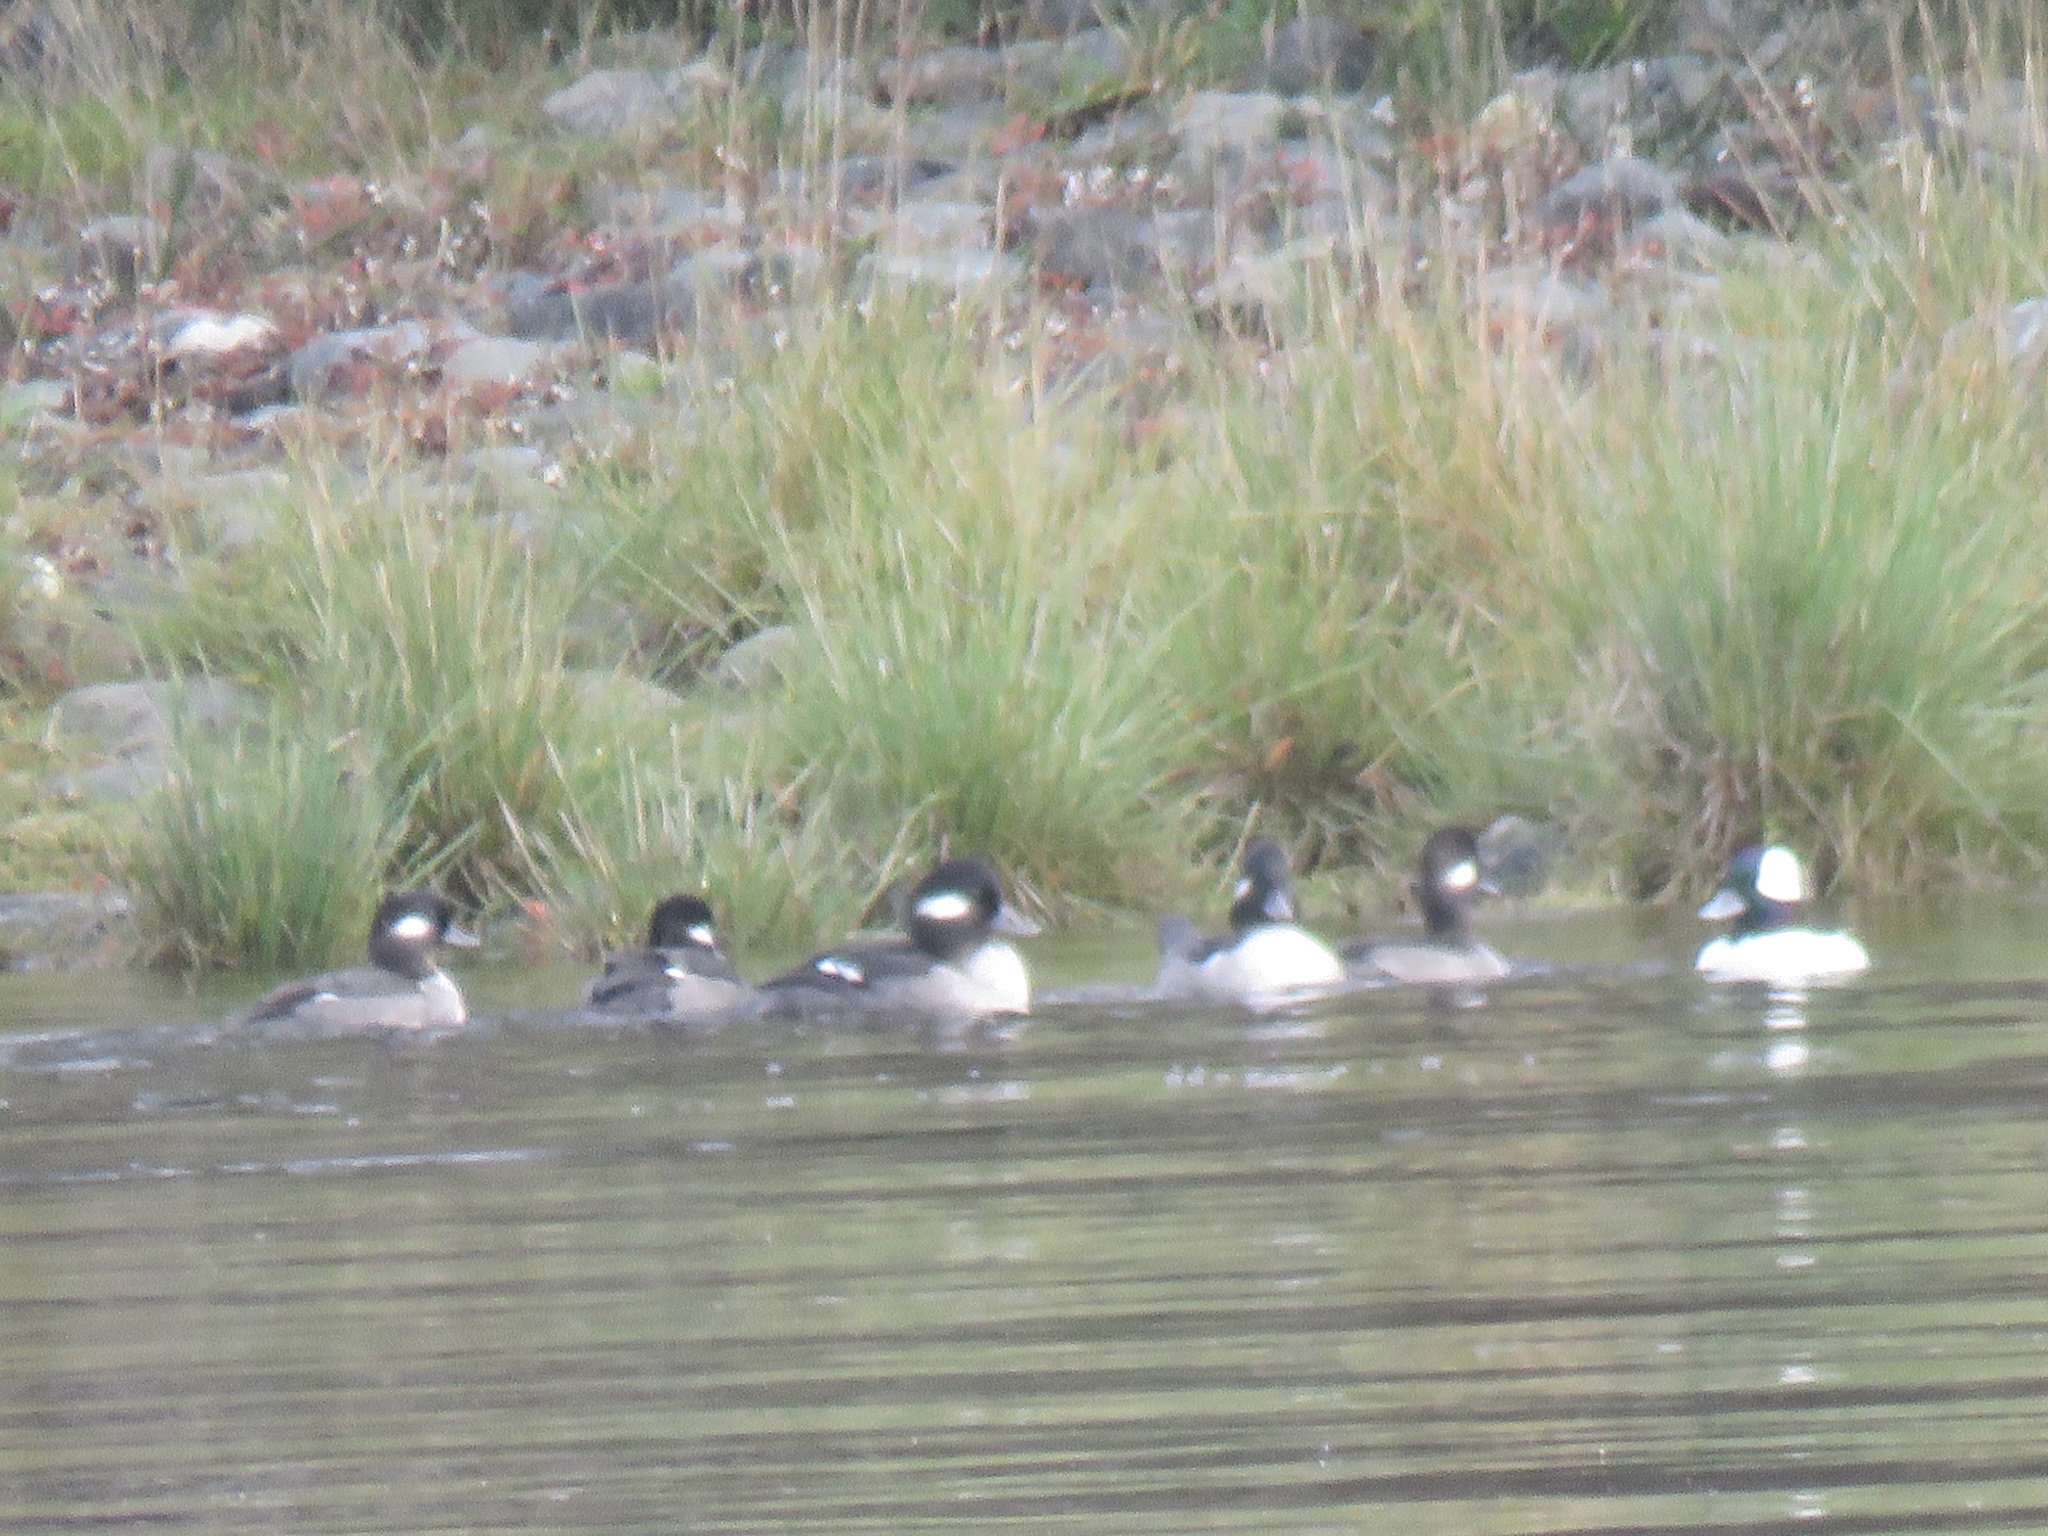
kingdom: Animalia
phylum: Chordata
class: Aves
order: Anseriformes
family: Anatidae
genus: Bucephala
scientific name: Bucephala albeola
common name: Bufflehead
